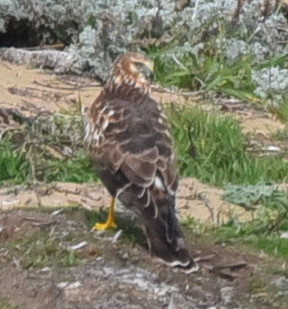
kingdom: Animalia
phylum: Chordata
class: Aves
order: Accipitriformes
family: Accipitridae
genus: Circus
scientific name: Circus cyaneus
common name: Hen harrier
